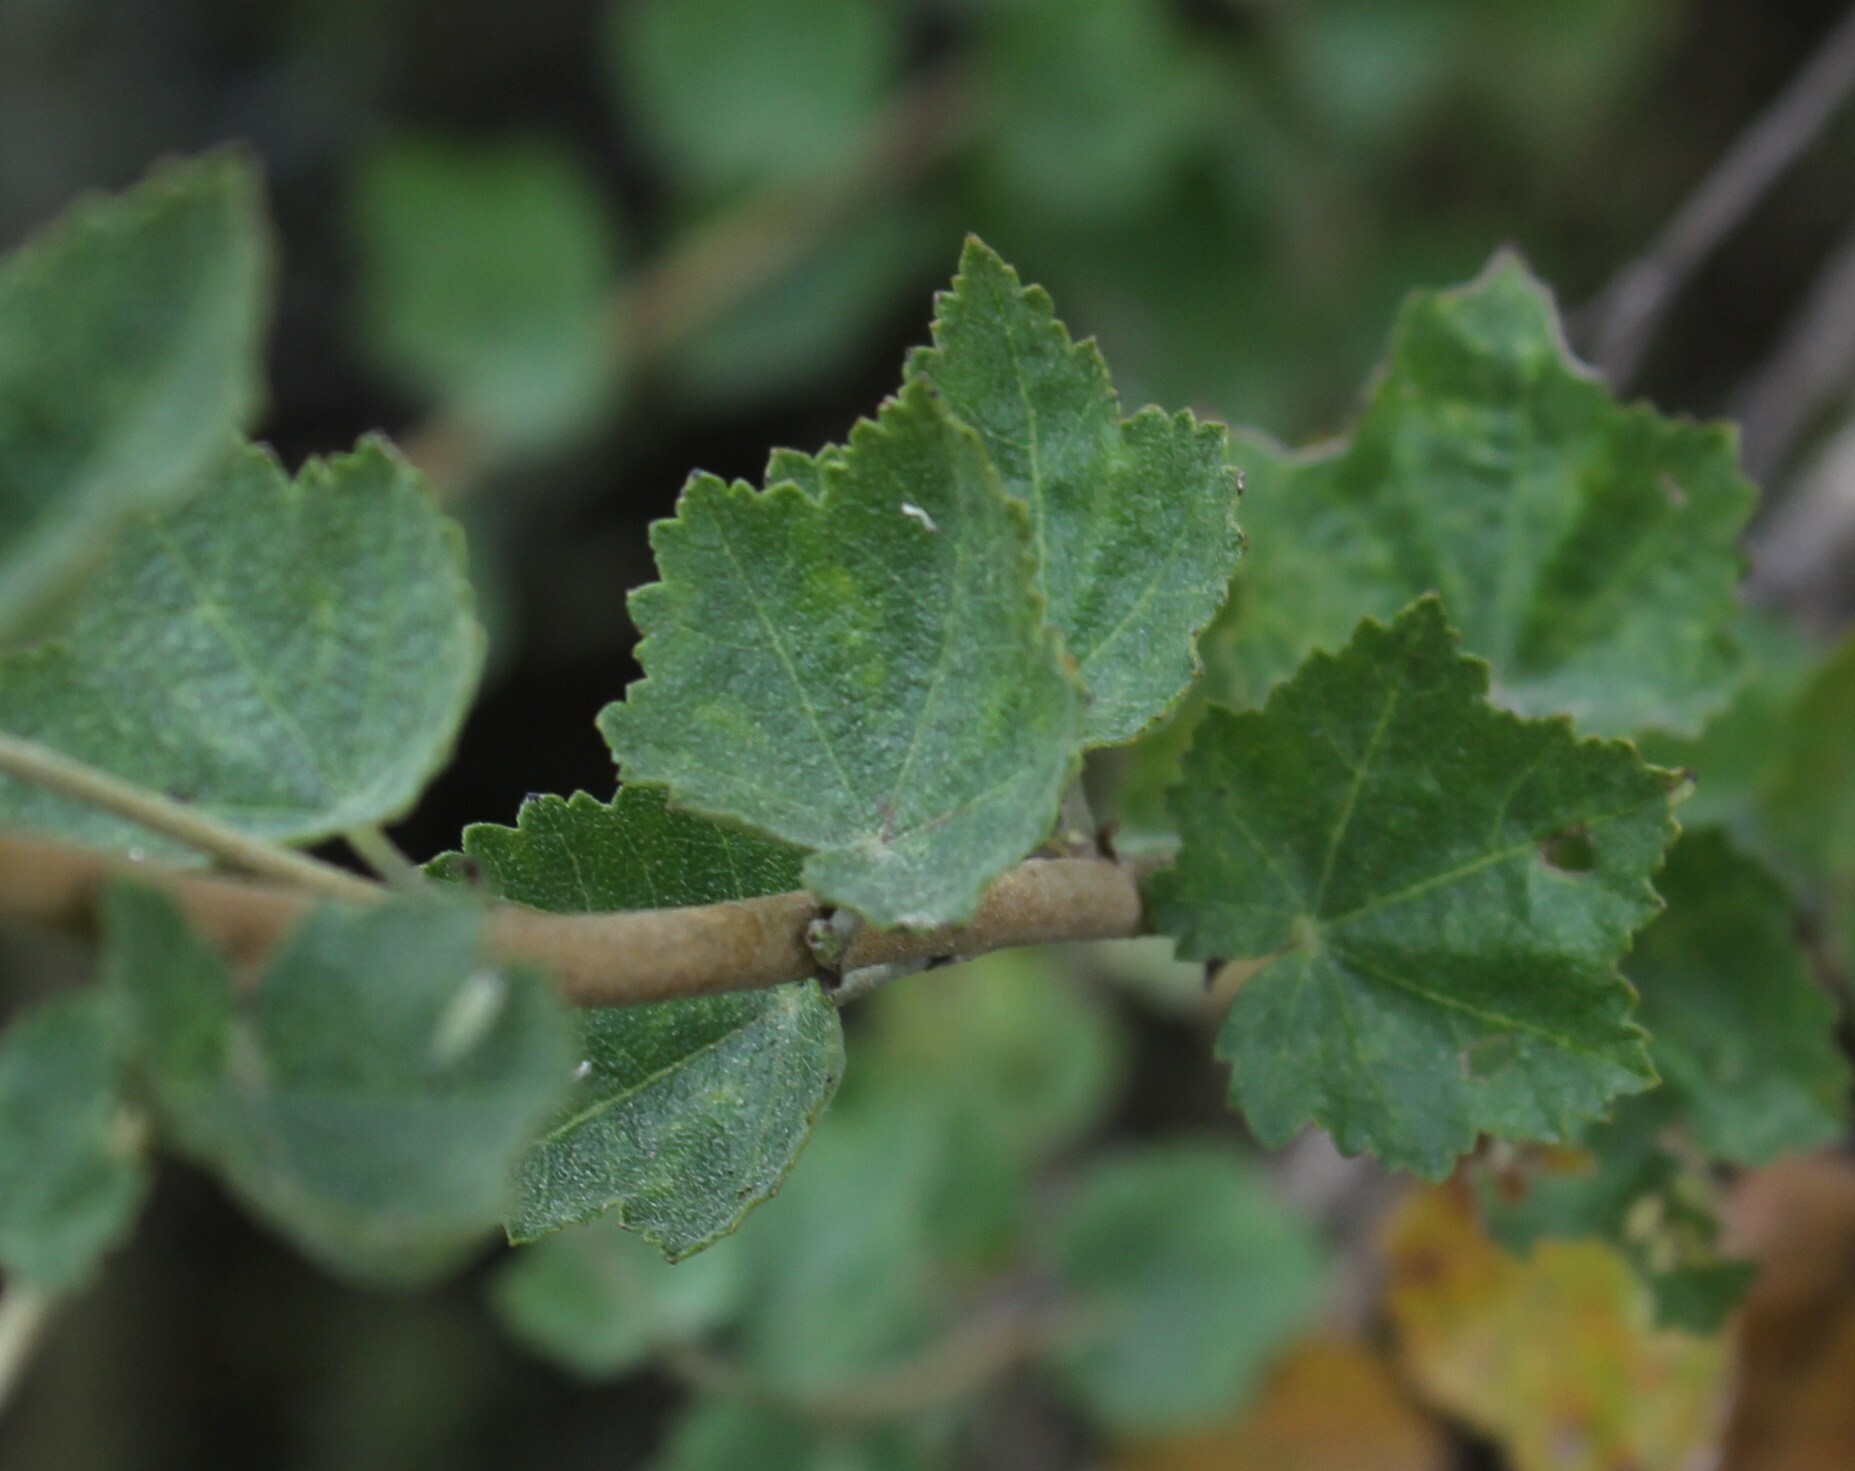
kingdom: Plantae
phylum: Tracheophyta
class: Magnoliopsida
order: Malvales
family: Malvaceae
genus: Malacothamnus
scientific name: Malacothamnus fasciculatus
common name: Sant cruz island bush-mallow
